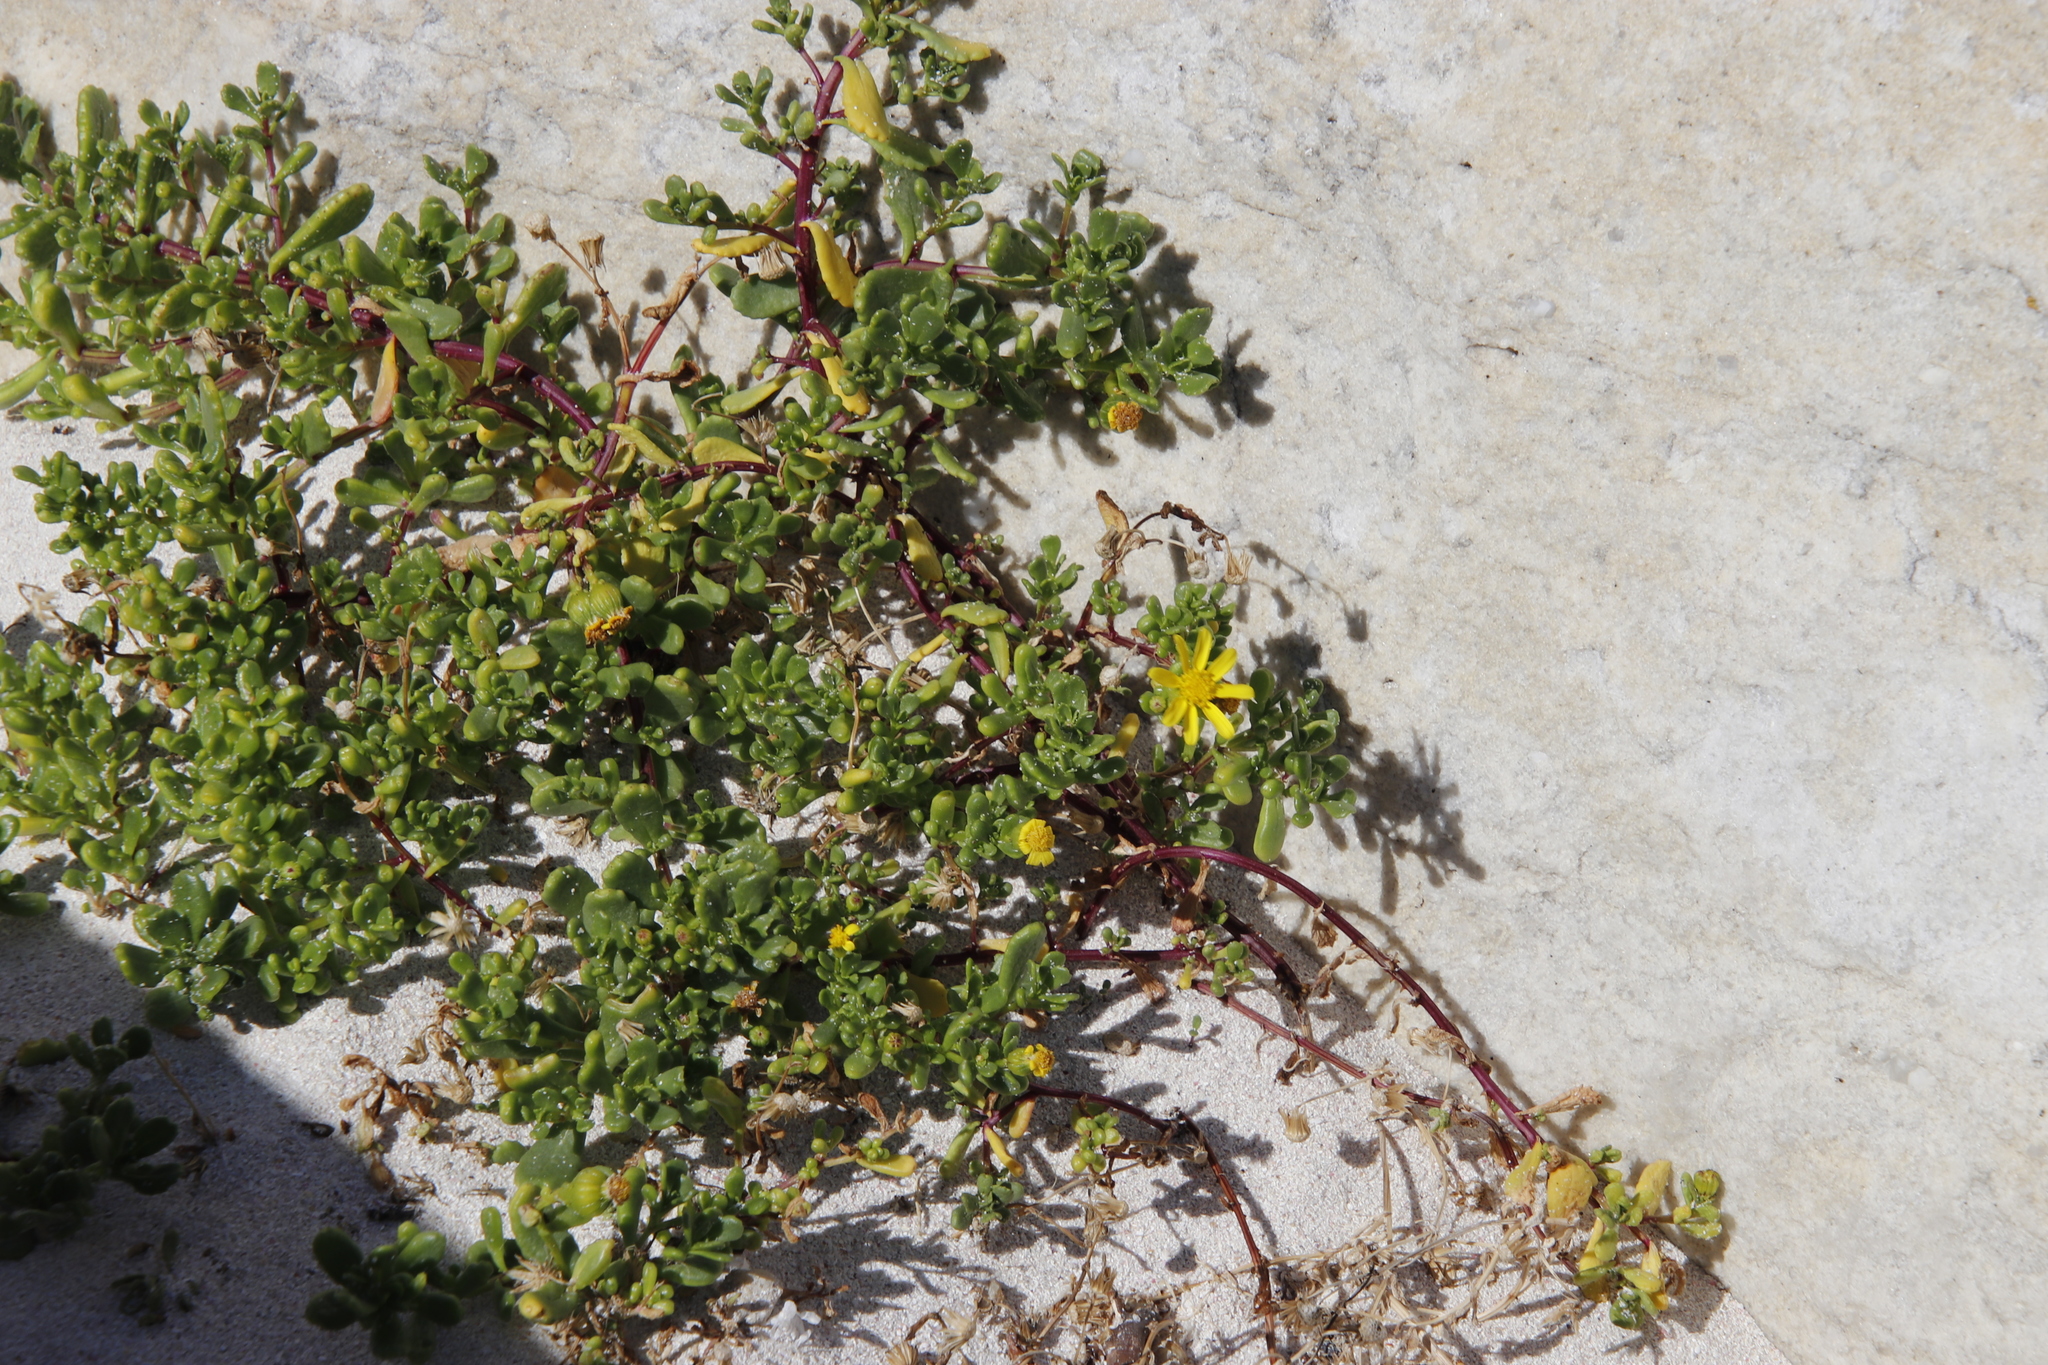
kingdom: Plantae
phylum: Tracheophyta
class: Magnoliopsida
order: Asterales
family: Asteraceae
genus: Senecio
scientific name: Senecio maritimus
